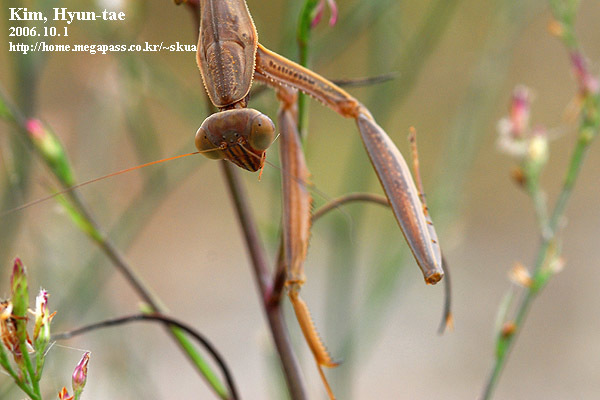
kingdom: Animalia
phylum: Arthropoda
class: Insecta
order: Mantodea
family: Mantidae
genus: Tenodera
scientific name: Tenodera aridifolia
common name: Mantis
